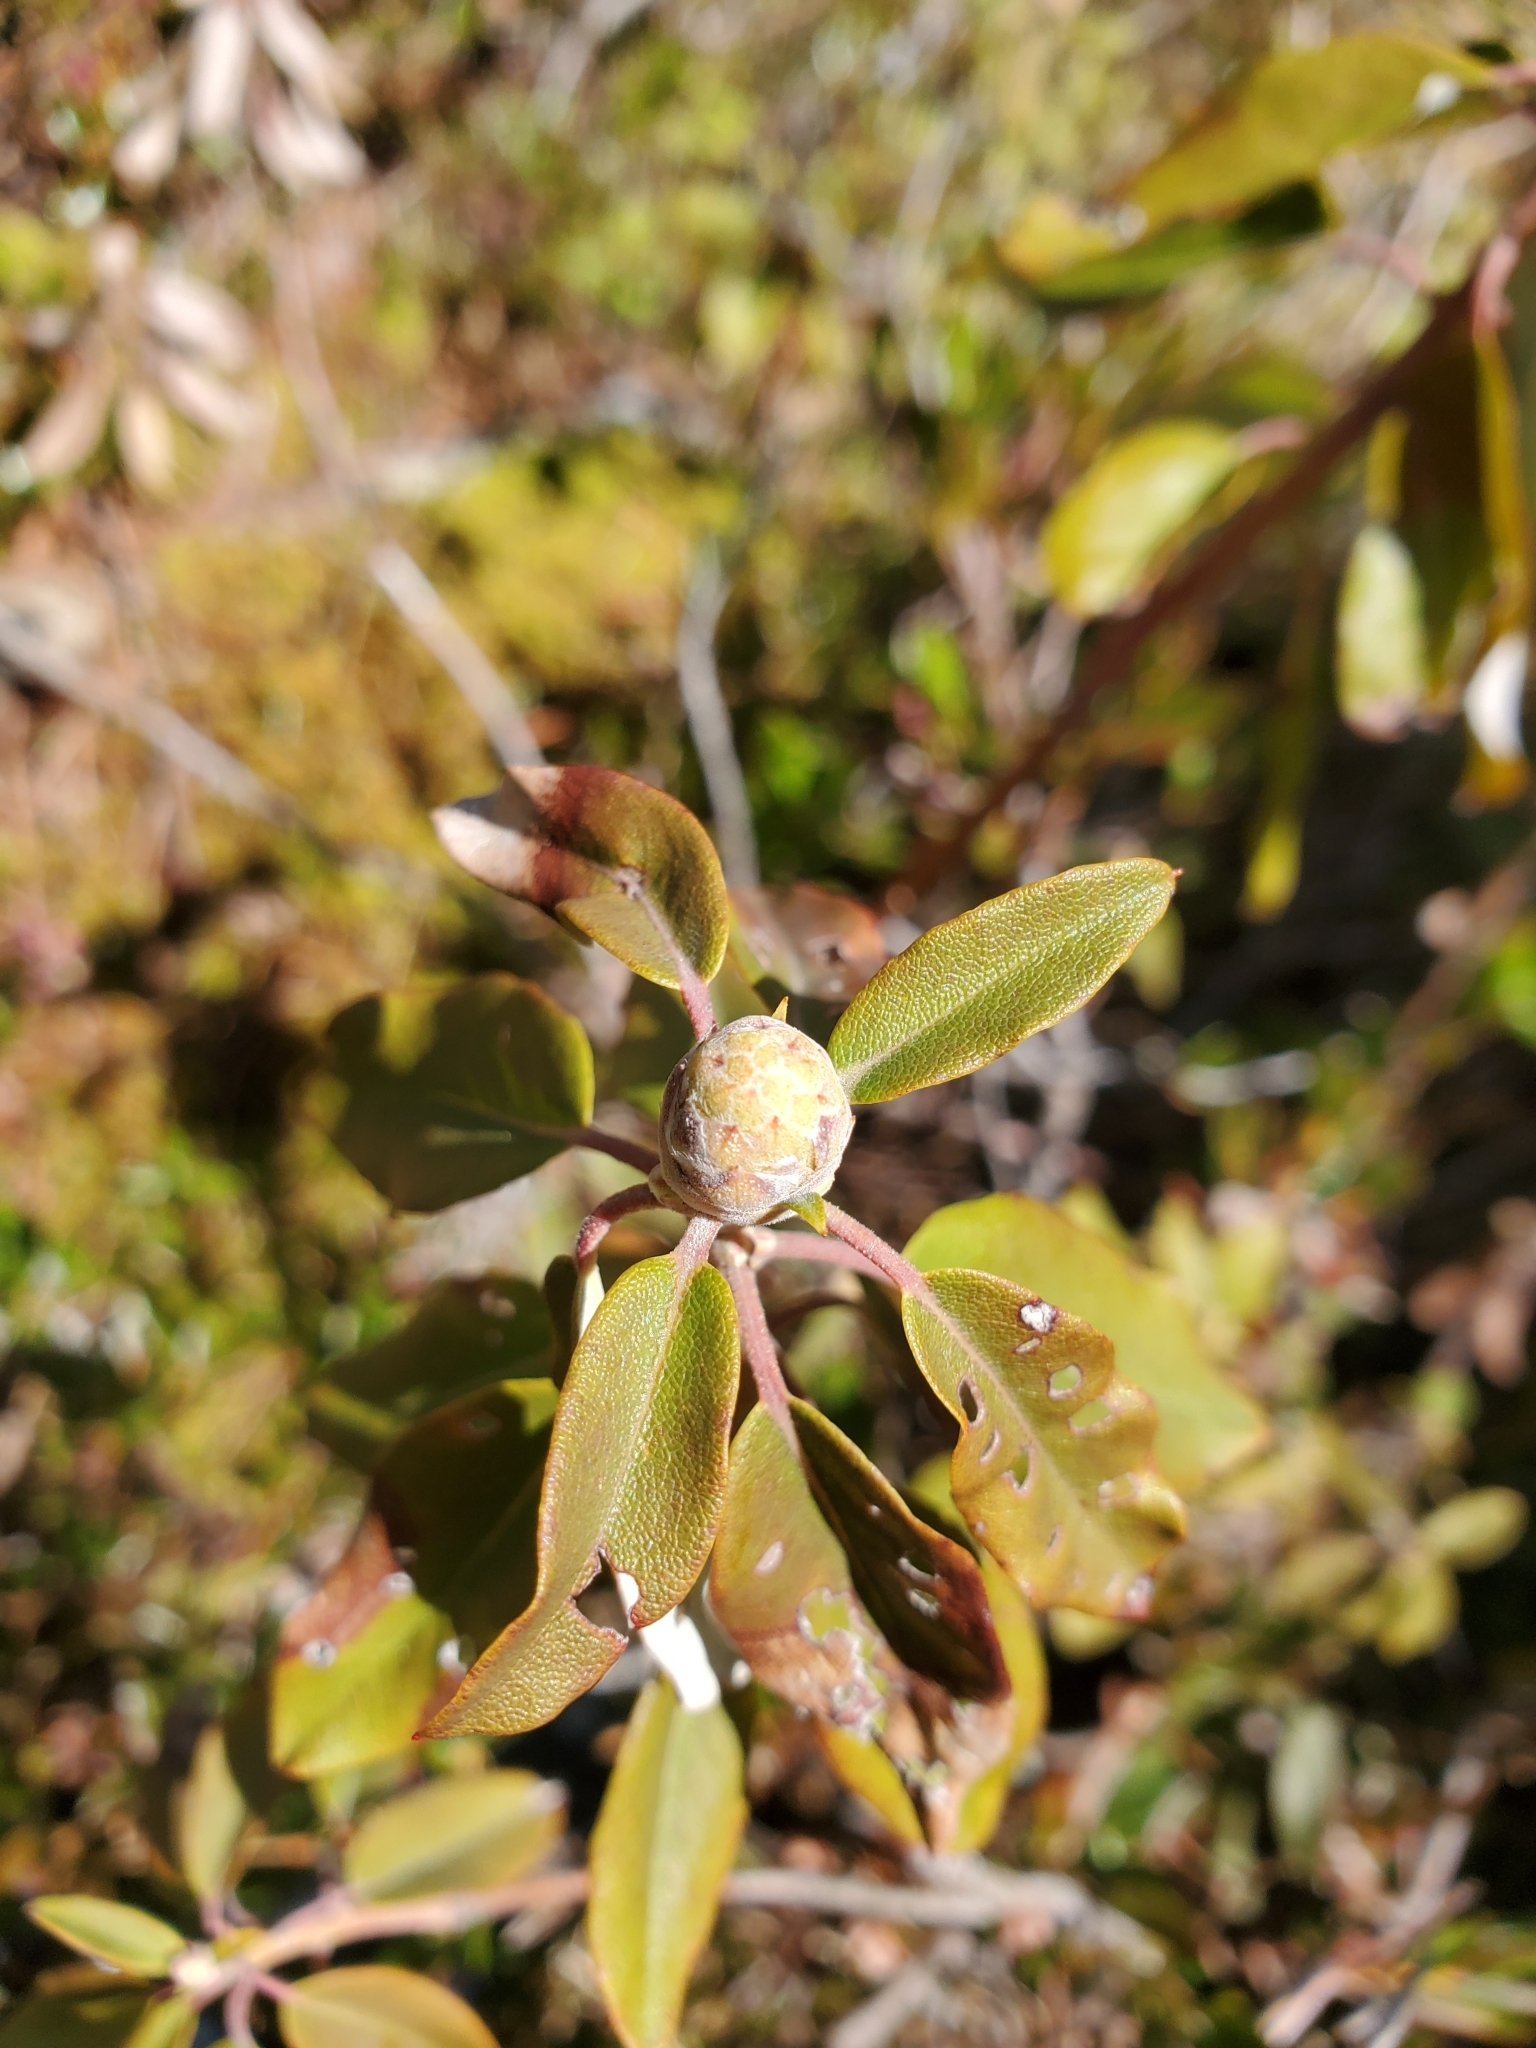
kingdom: Plantae
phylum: Tracheophyta
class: Magnoliopsida
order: Ericales
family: Ericaceae
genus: Rhododendron
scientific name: Rhododendron columbianum
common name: Western labrador tea
